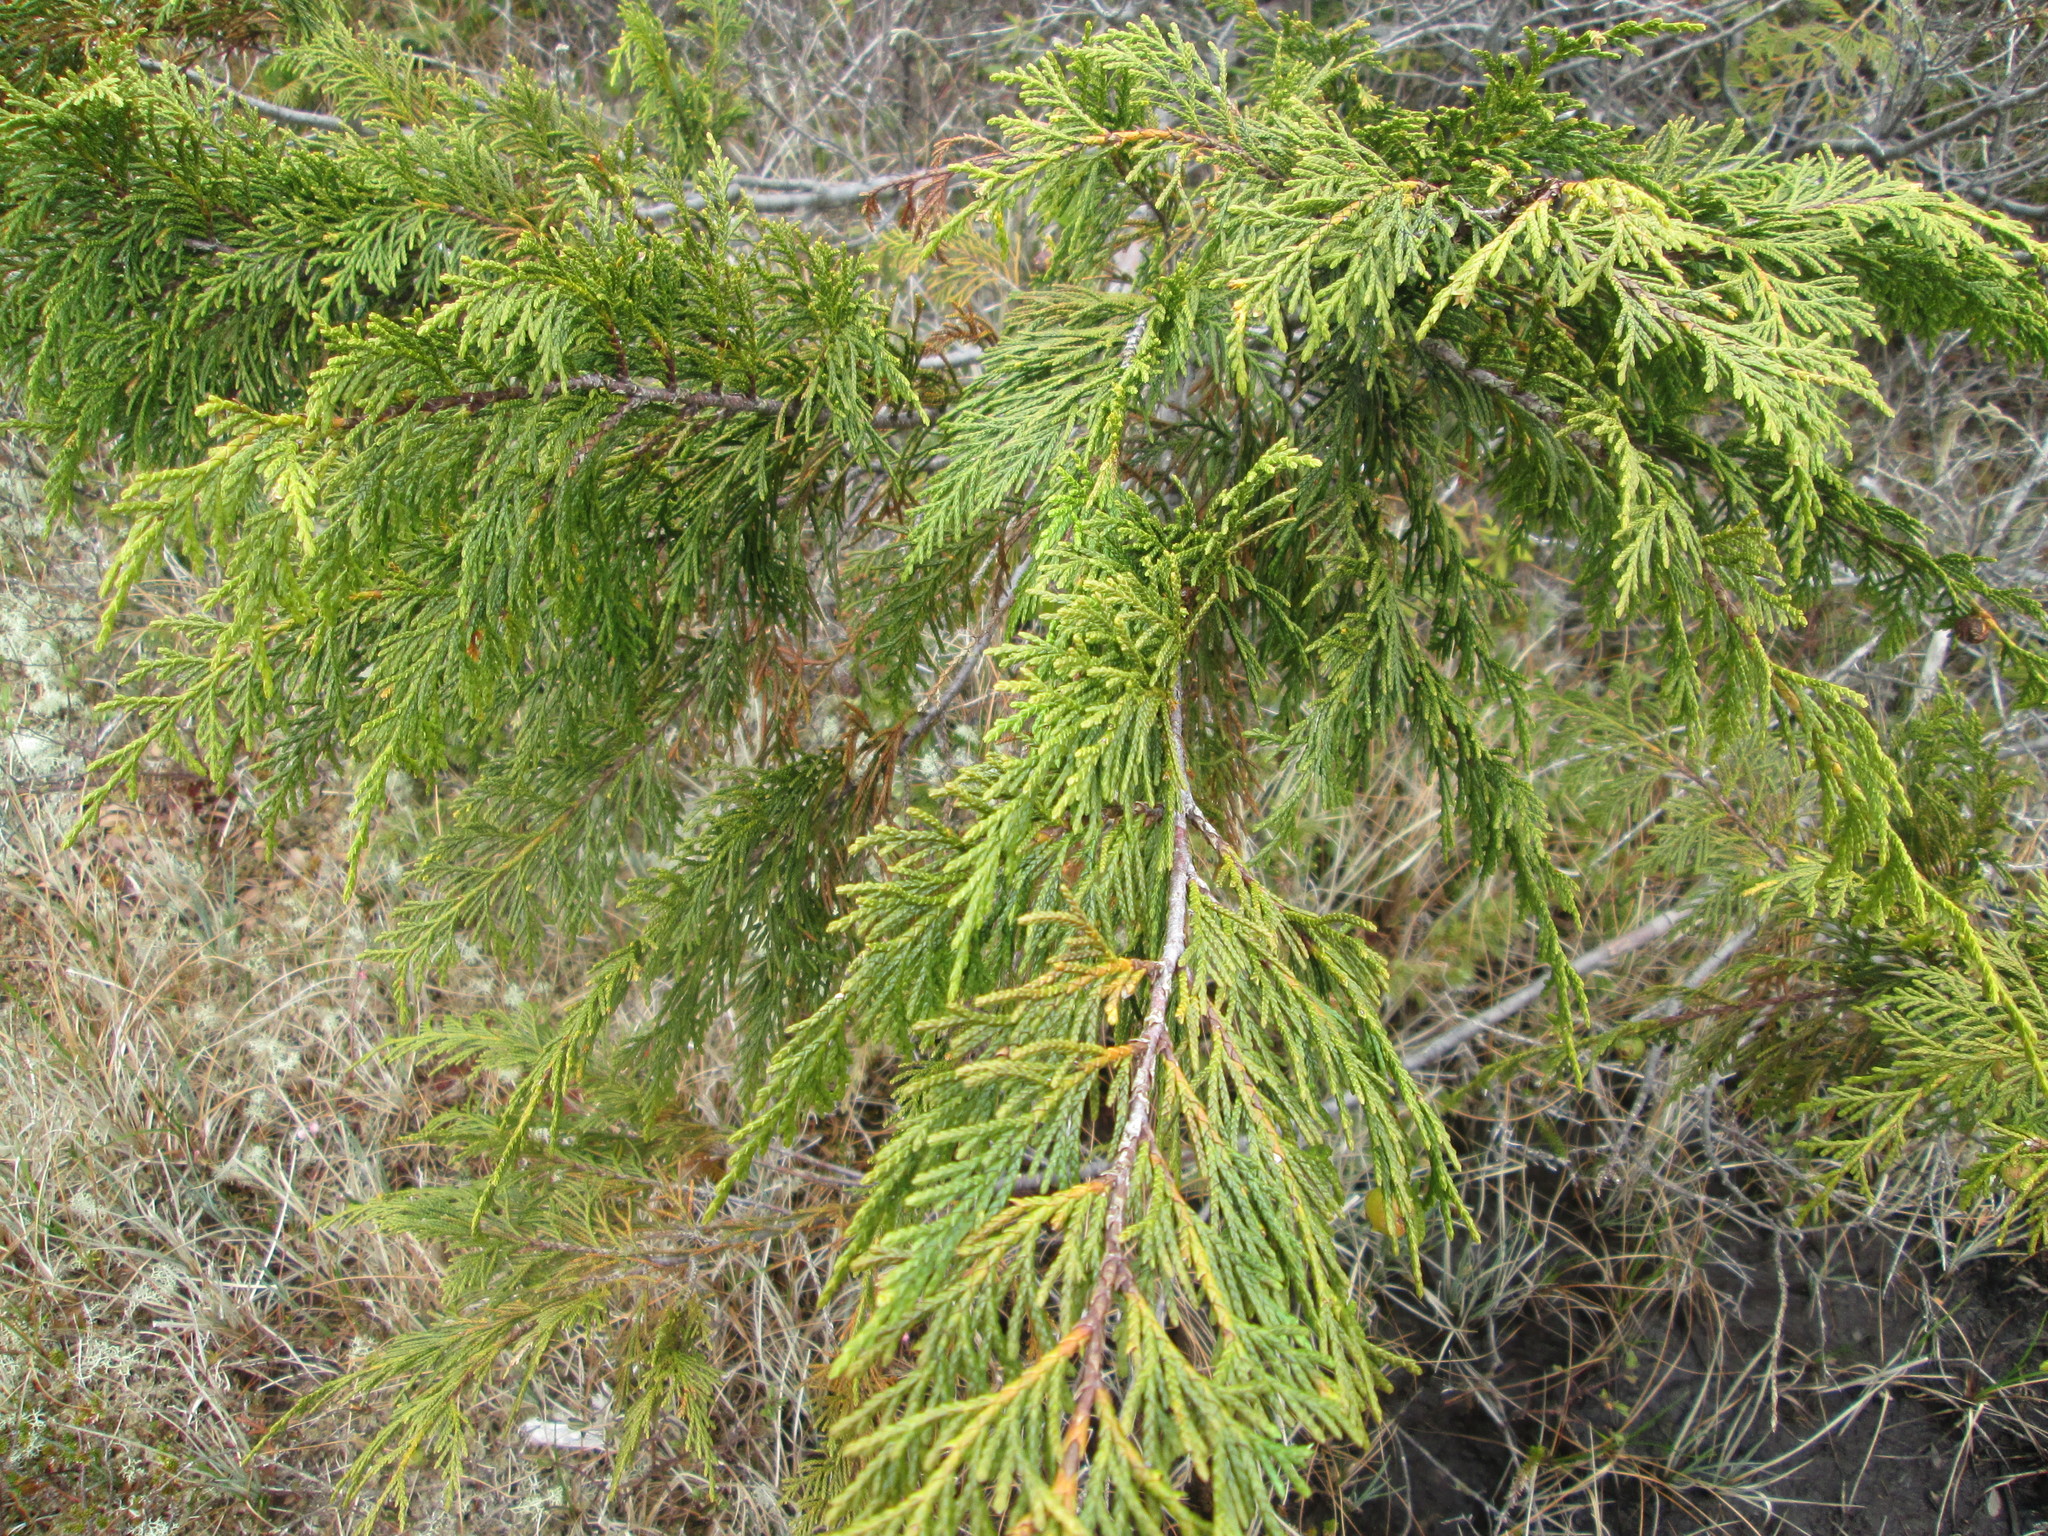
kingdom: Plantae
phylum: Tracheophyta
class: Pinopsida
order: Pinales
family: Cupressaceae
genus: Xanthocyparis
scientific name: Xanthocyparis nootkatensis
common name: Nootka cypress
